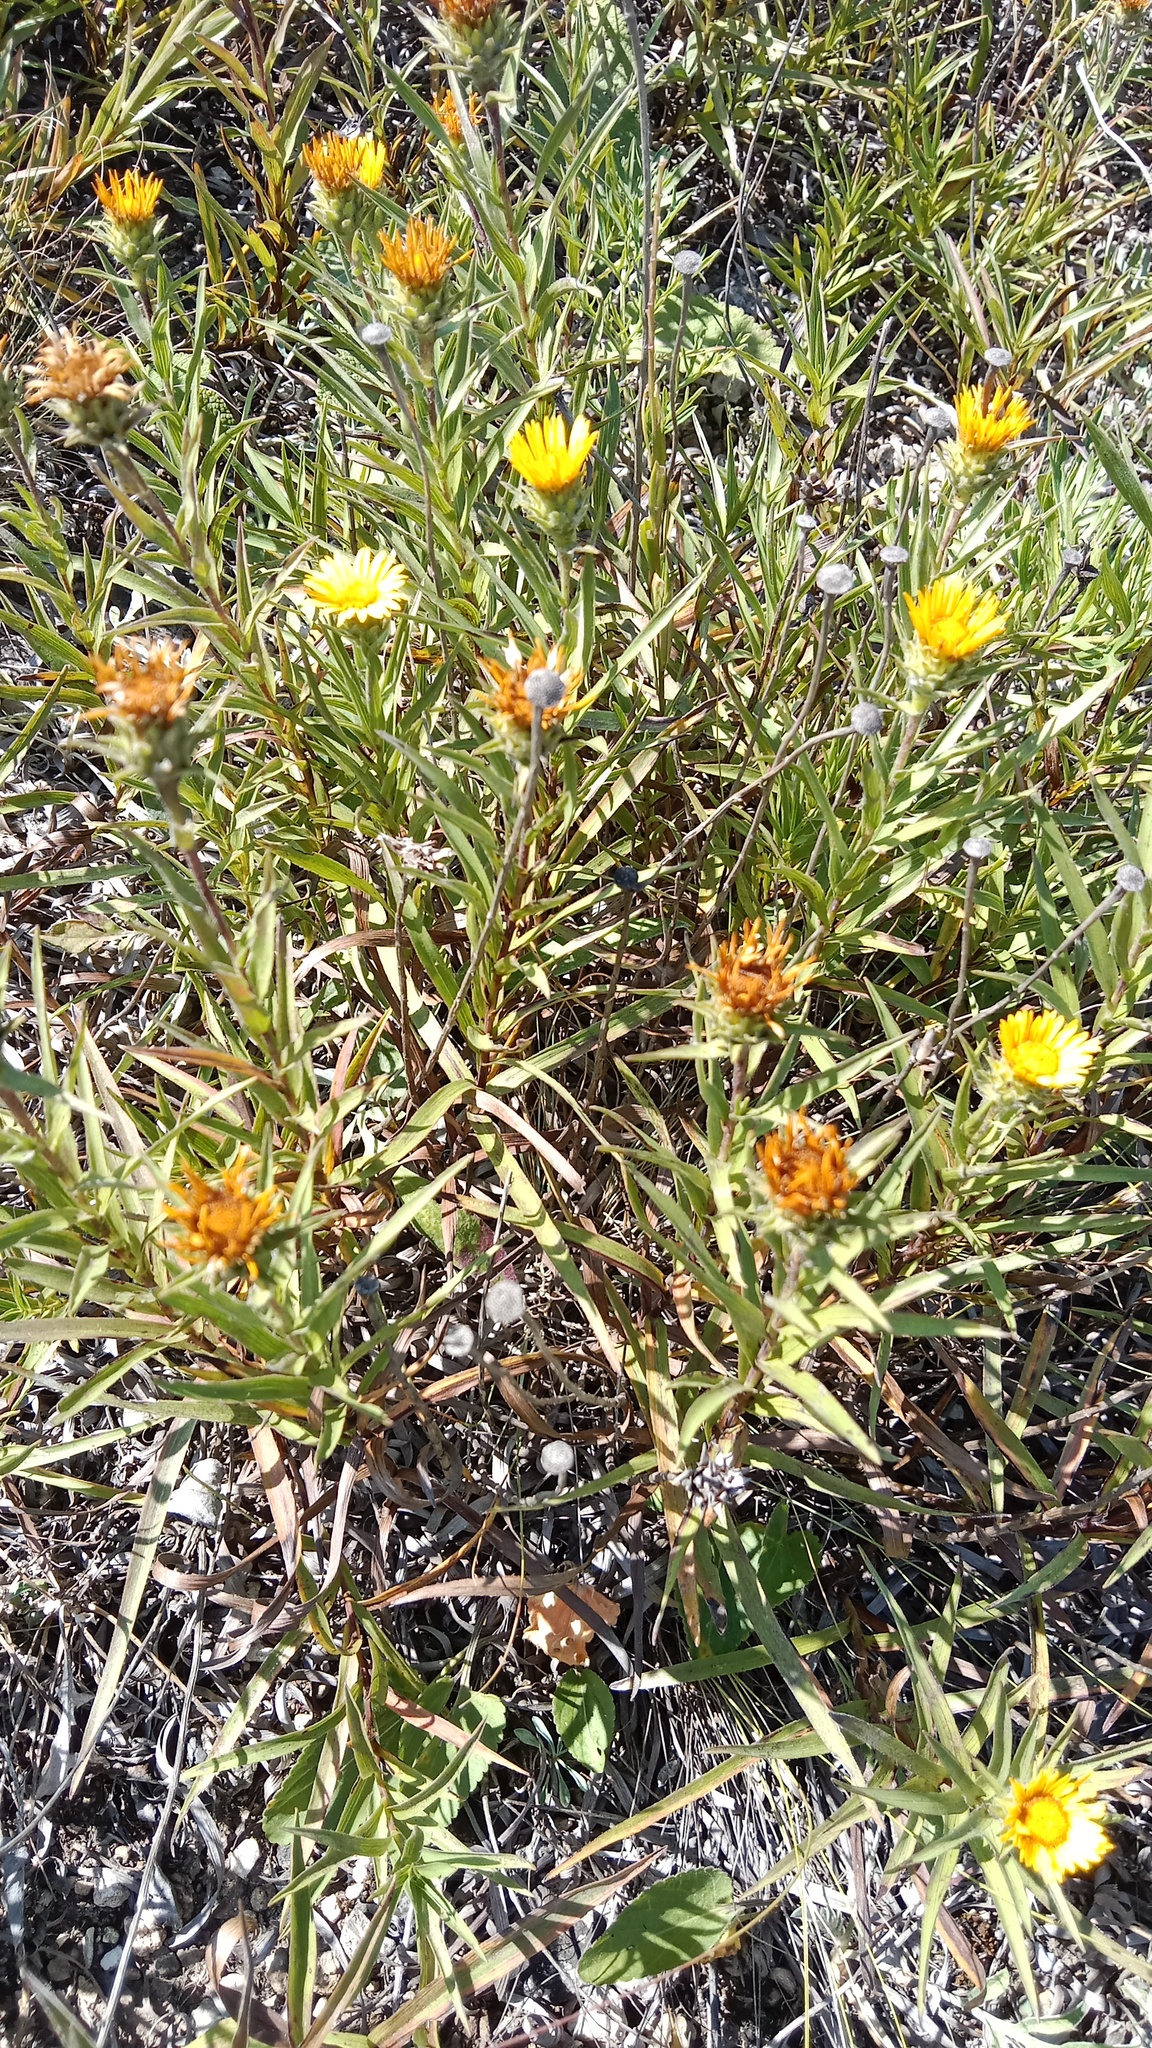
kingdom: Plantae
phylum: Tracheophyta
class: Magnoliopsida
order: Asterales
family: Asteraceae
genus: Pentanema
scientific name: Pentanema ensifolium
